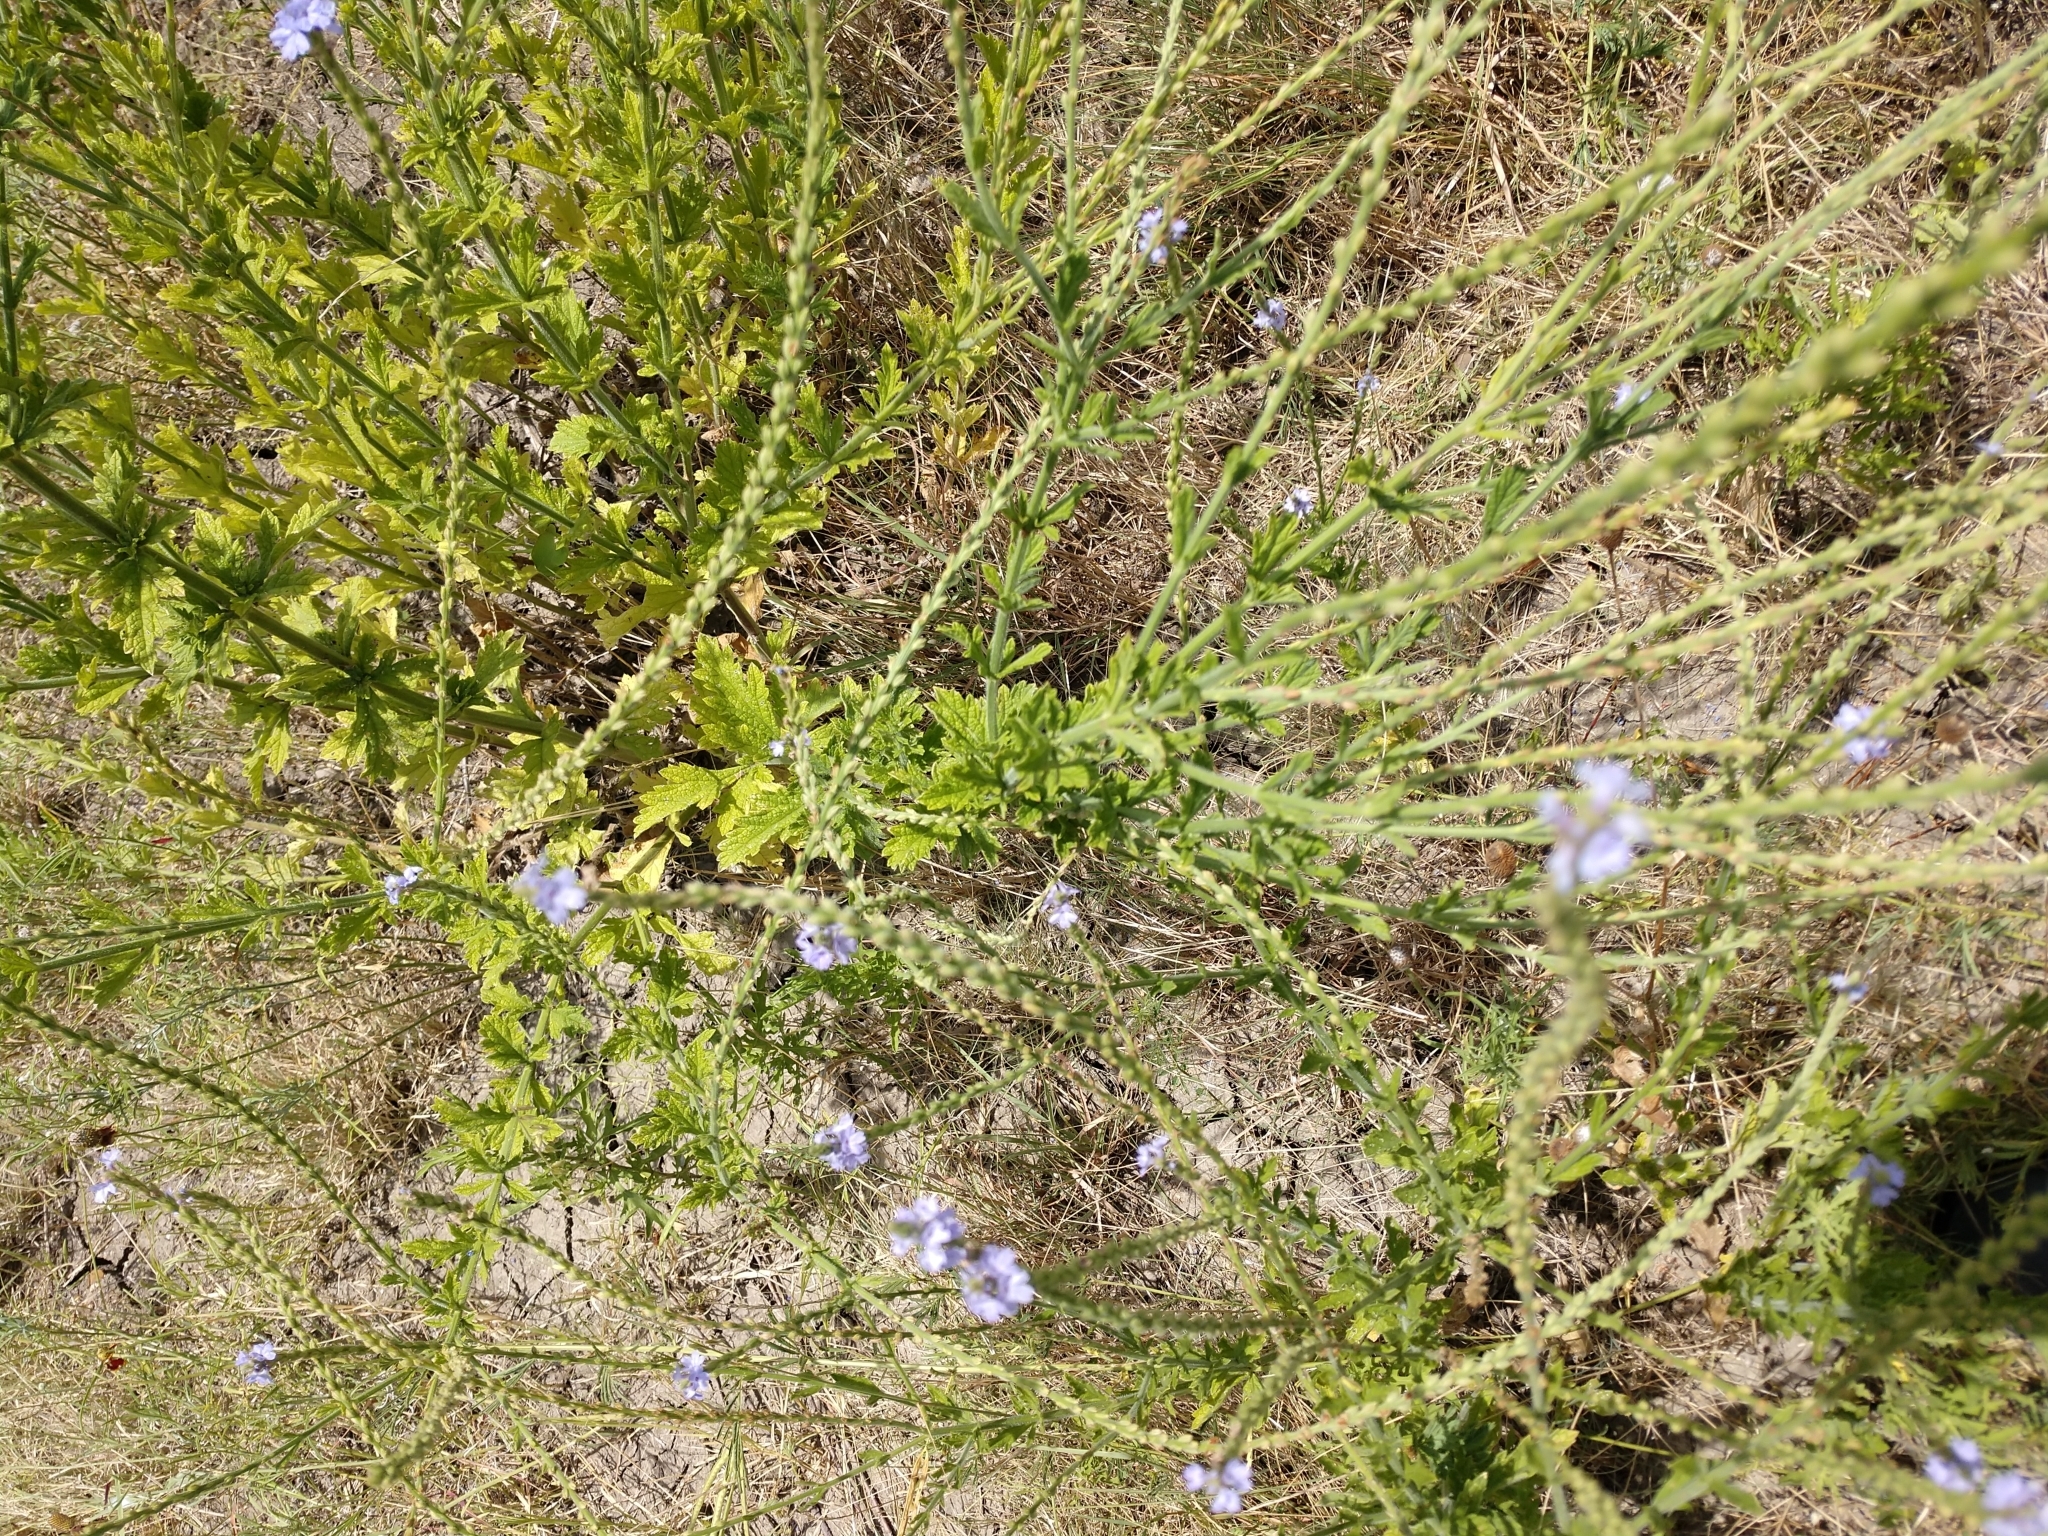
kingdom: Plantae
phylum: Tracheophyta
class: Magnoliopsida
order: Lamiales
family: Verbenaceae
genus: Verbena
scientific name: Verbena xutha
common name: Gulf vervain
